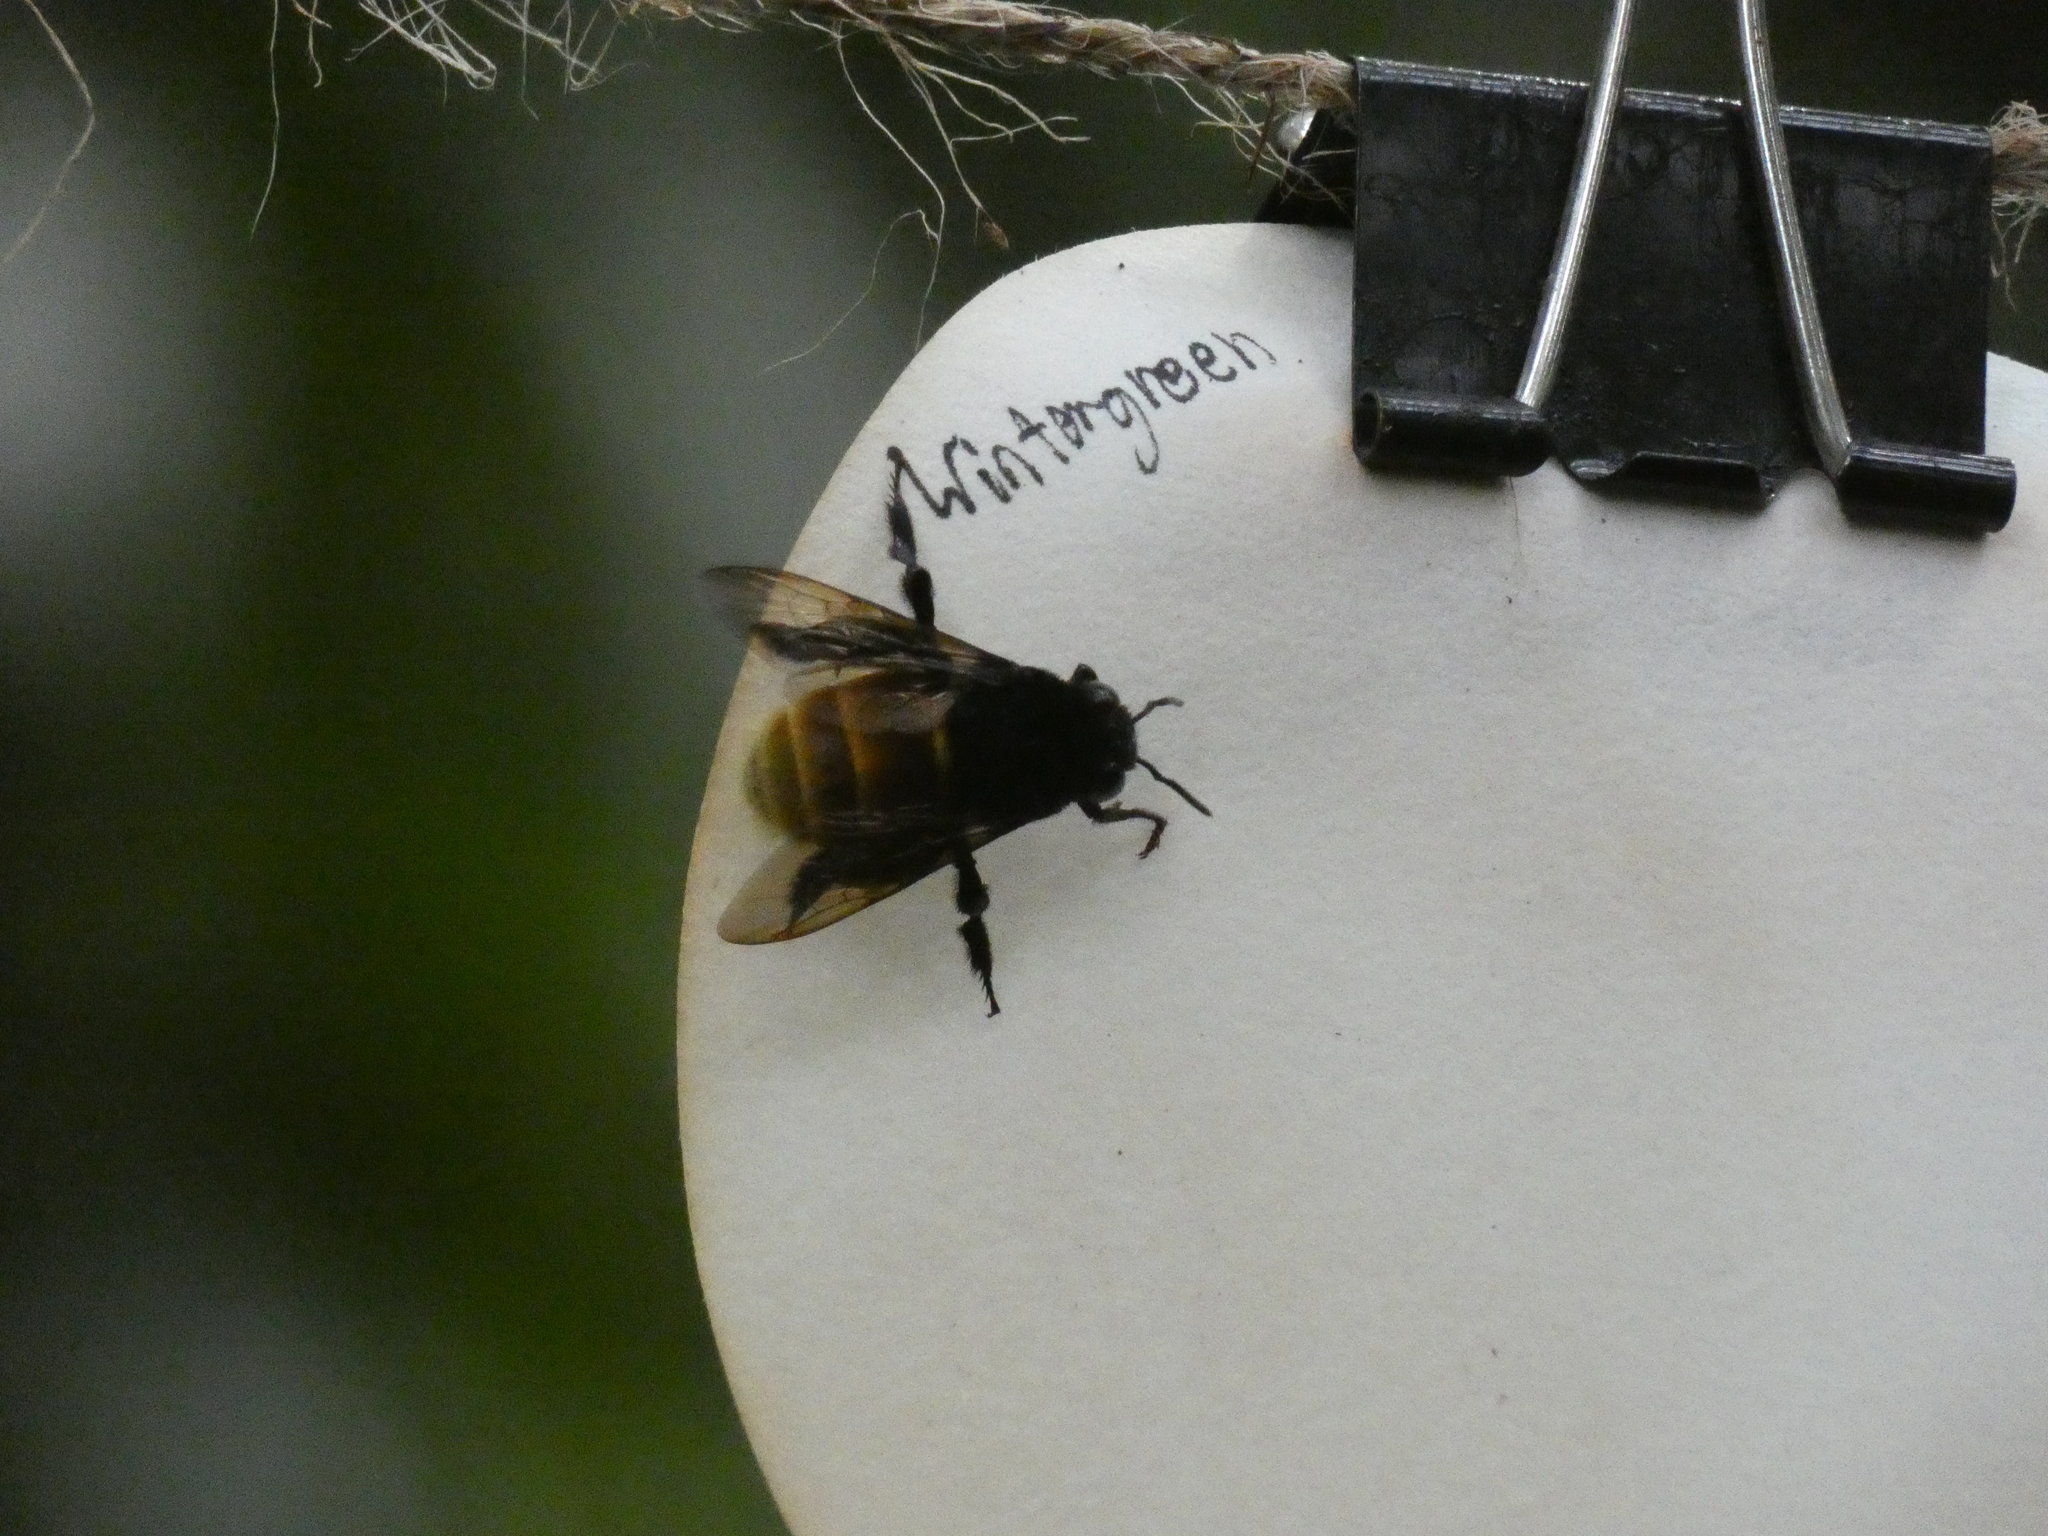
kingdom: Animalia
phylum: Arthropoda
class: Insecta
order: Hymenoptera
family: Apidae
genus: Eulaema
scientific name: Eulaema mocsaryi
